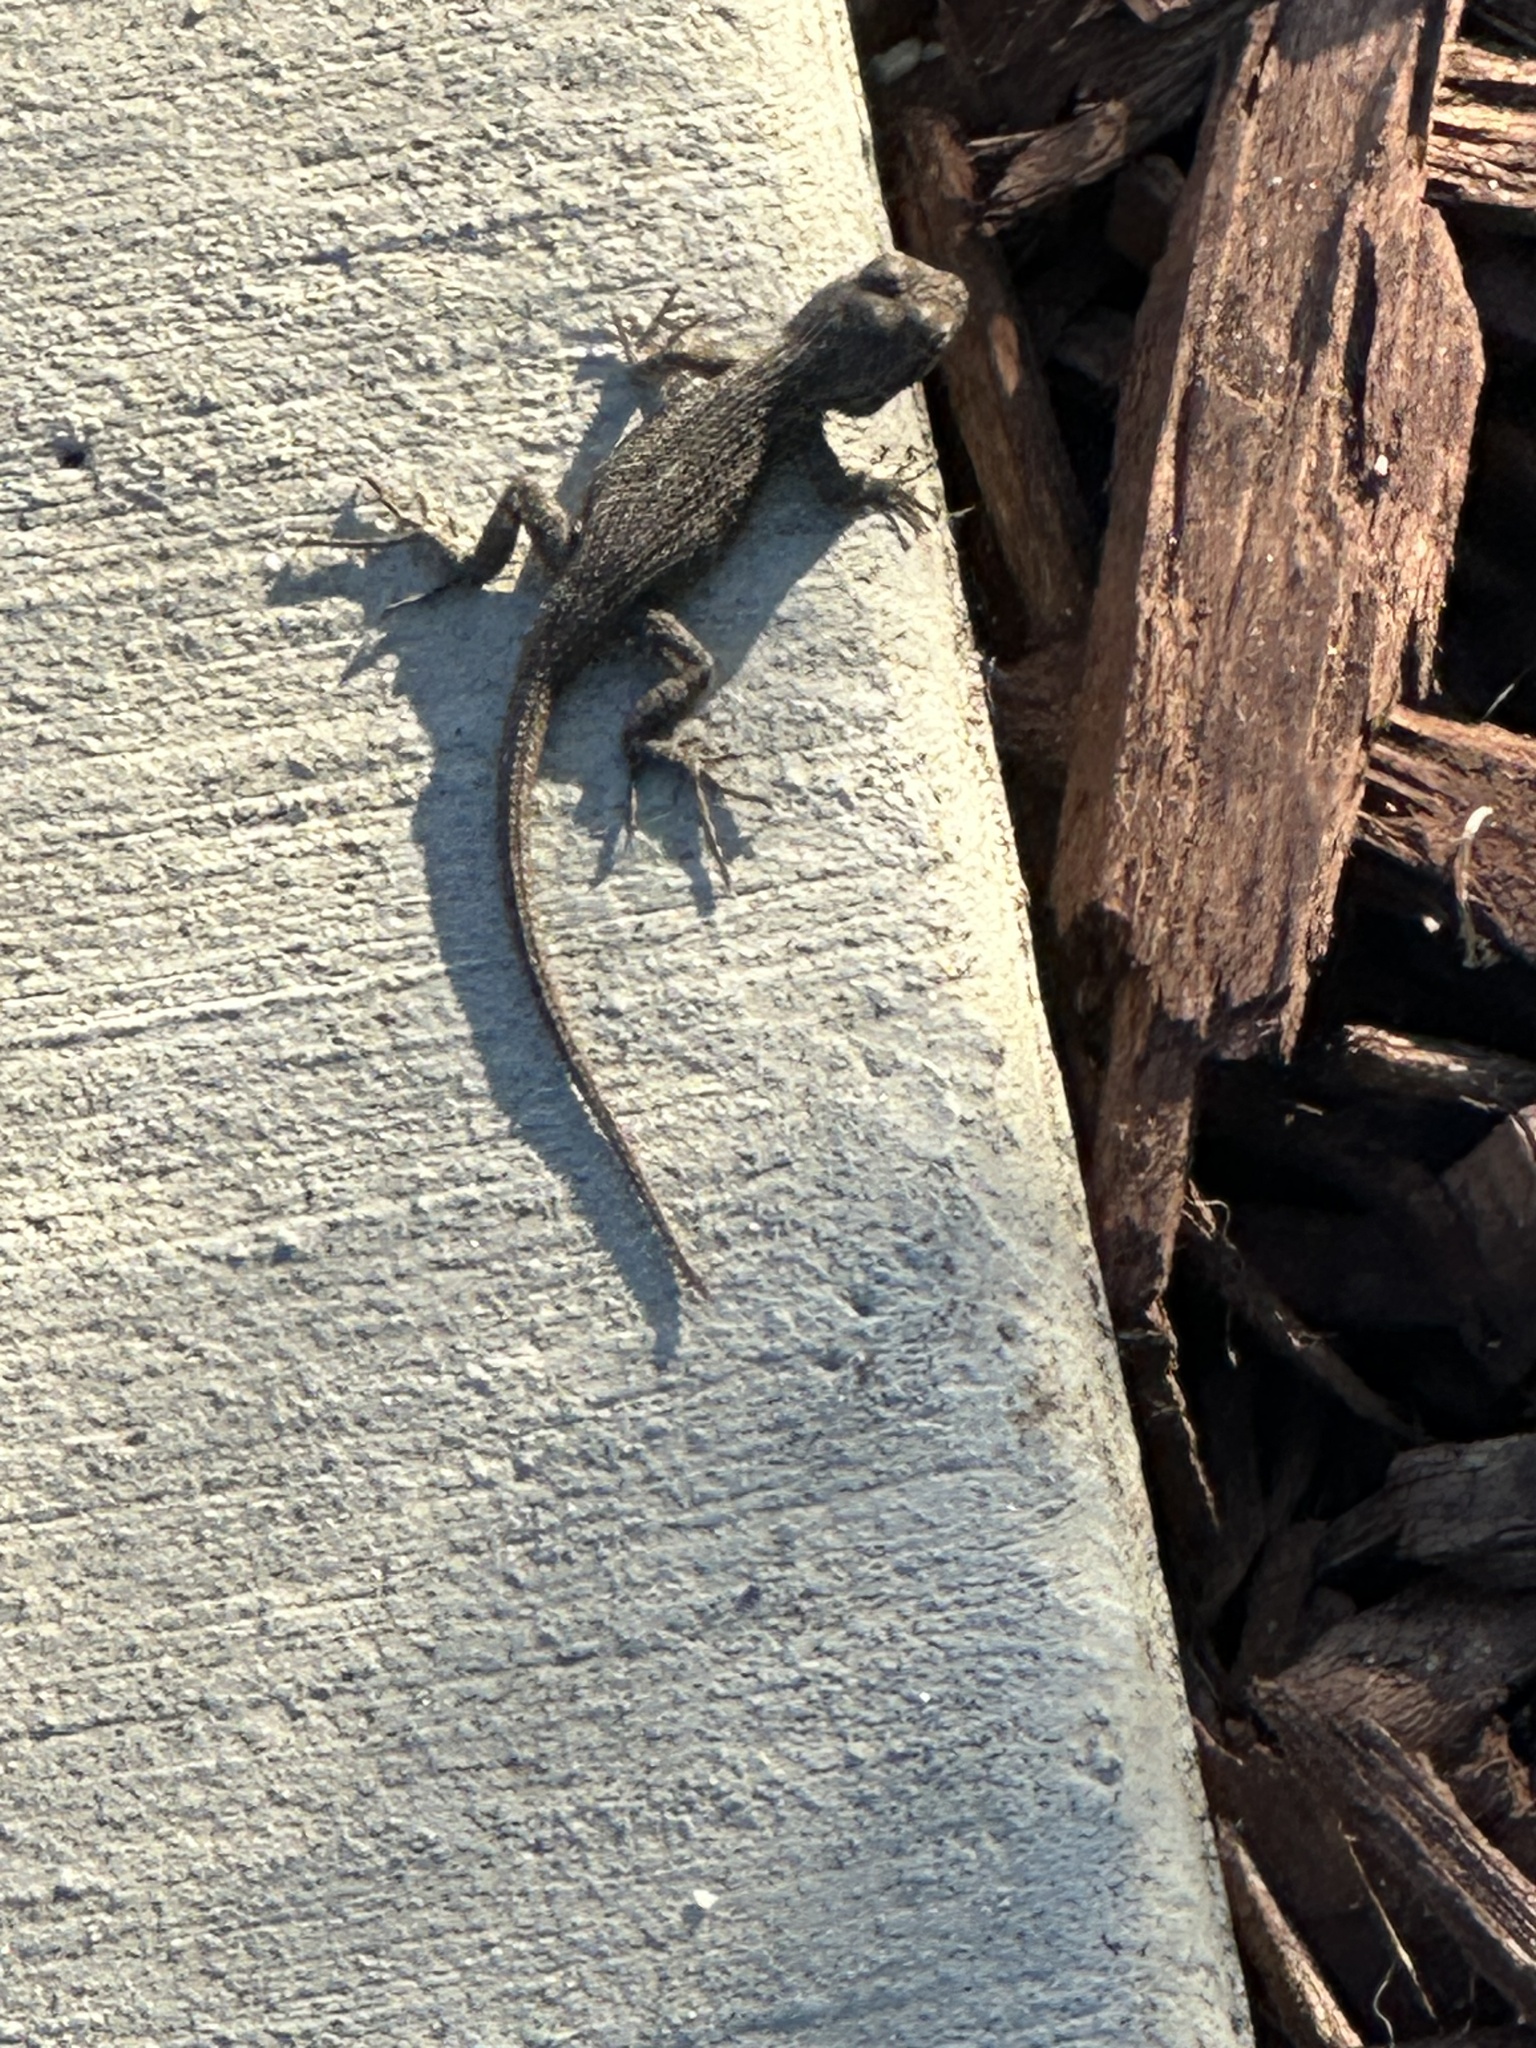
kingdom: Animalia
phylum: Chordata
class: Squamata
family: Phrynosomatidae
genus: Sceloporus
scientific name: Sceloporus occidentalis
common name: Western fence lizard
